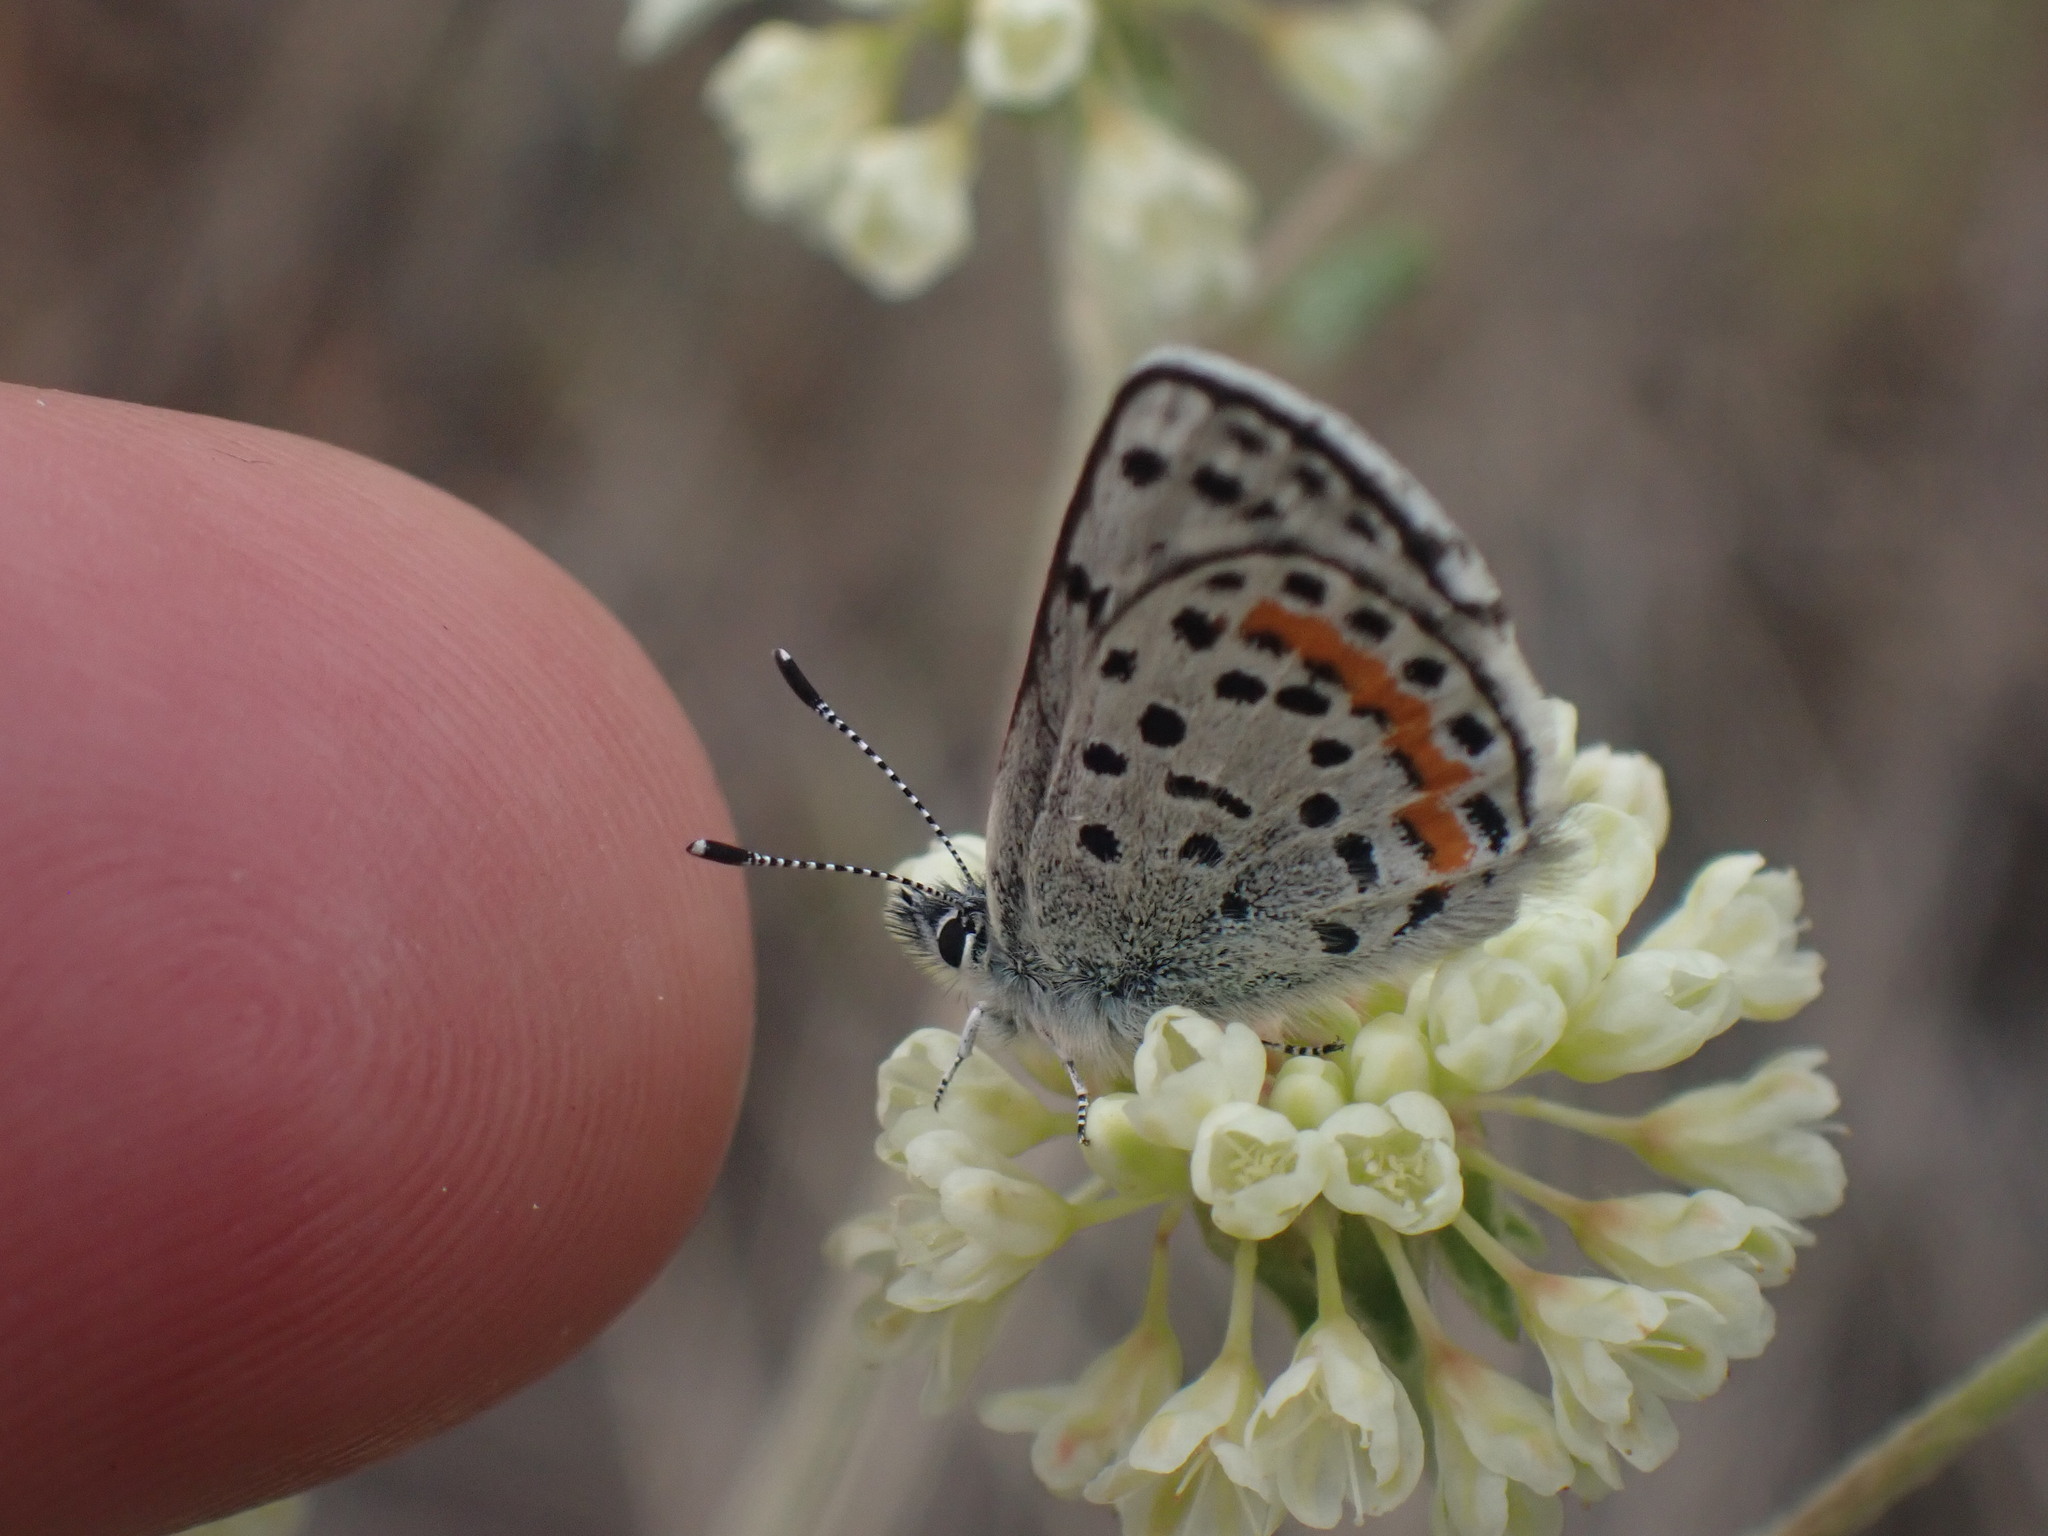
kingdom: Animalia
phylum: Arthropoda
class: Insecta
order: Lepidoptera
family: Lycaenidae
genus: Euphilotes
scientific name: Euphilotes
